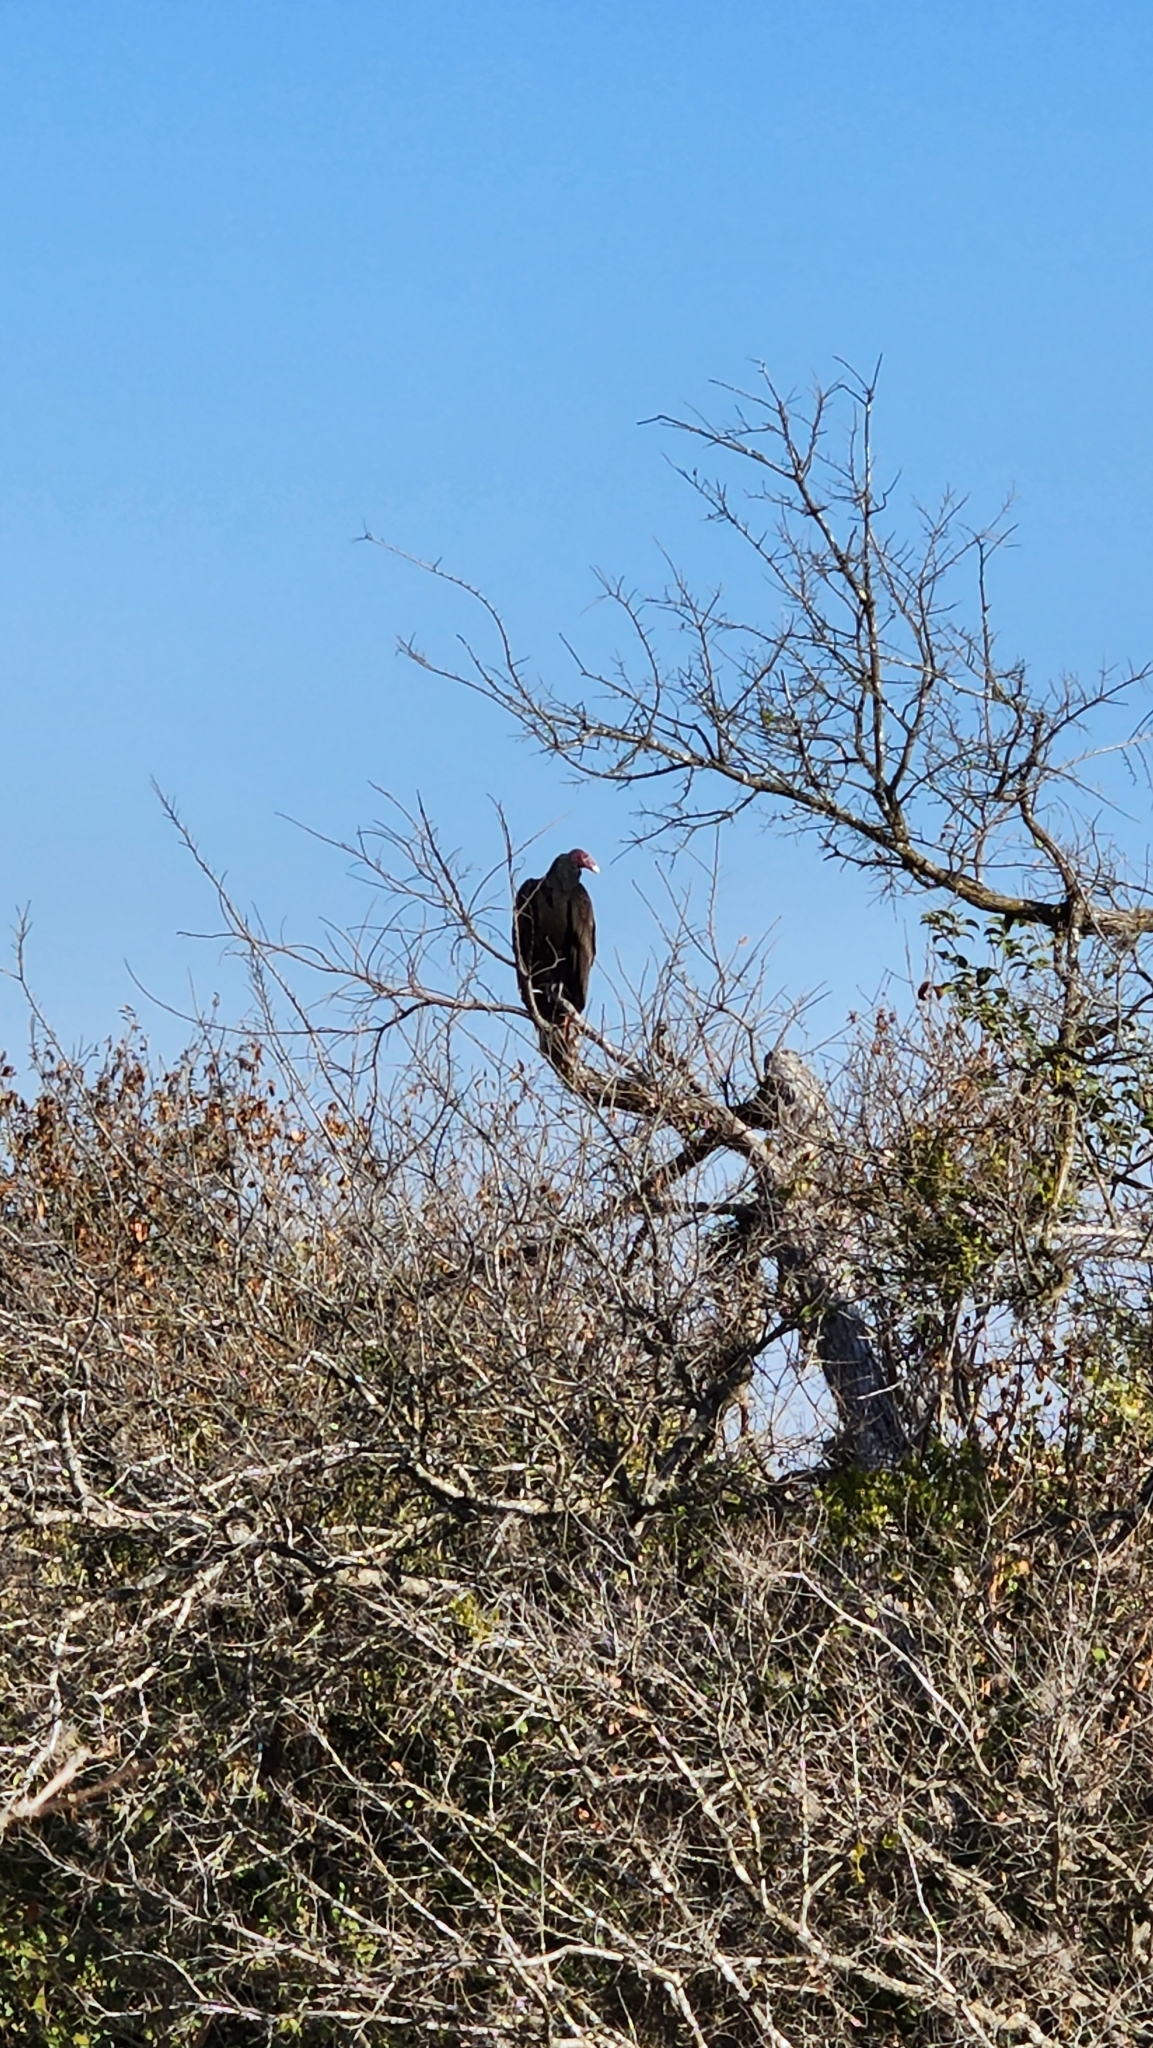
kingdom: Animalia
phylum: Chordata
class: Aves
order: Accipitriformes
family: Cathartidae
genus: Cathartes
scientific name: Cathartes aura
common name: Turkey vulture
